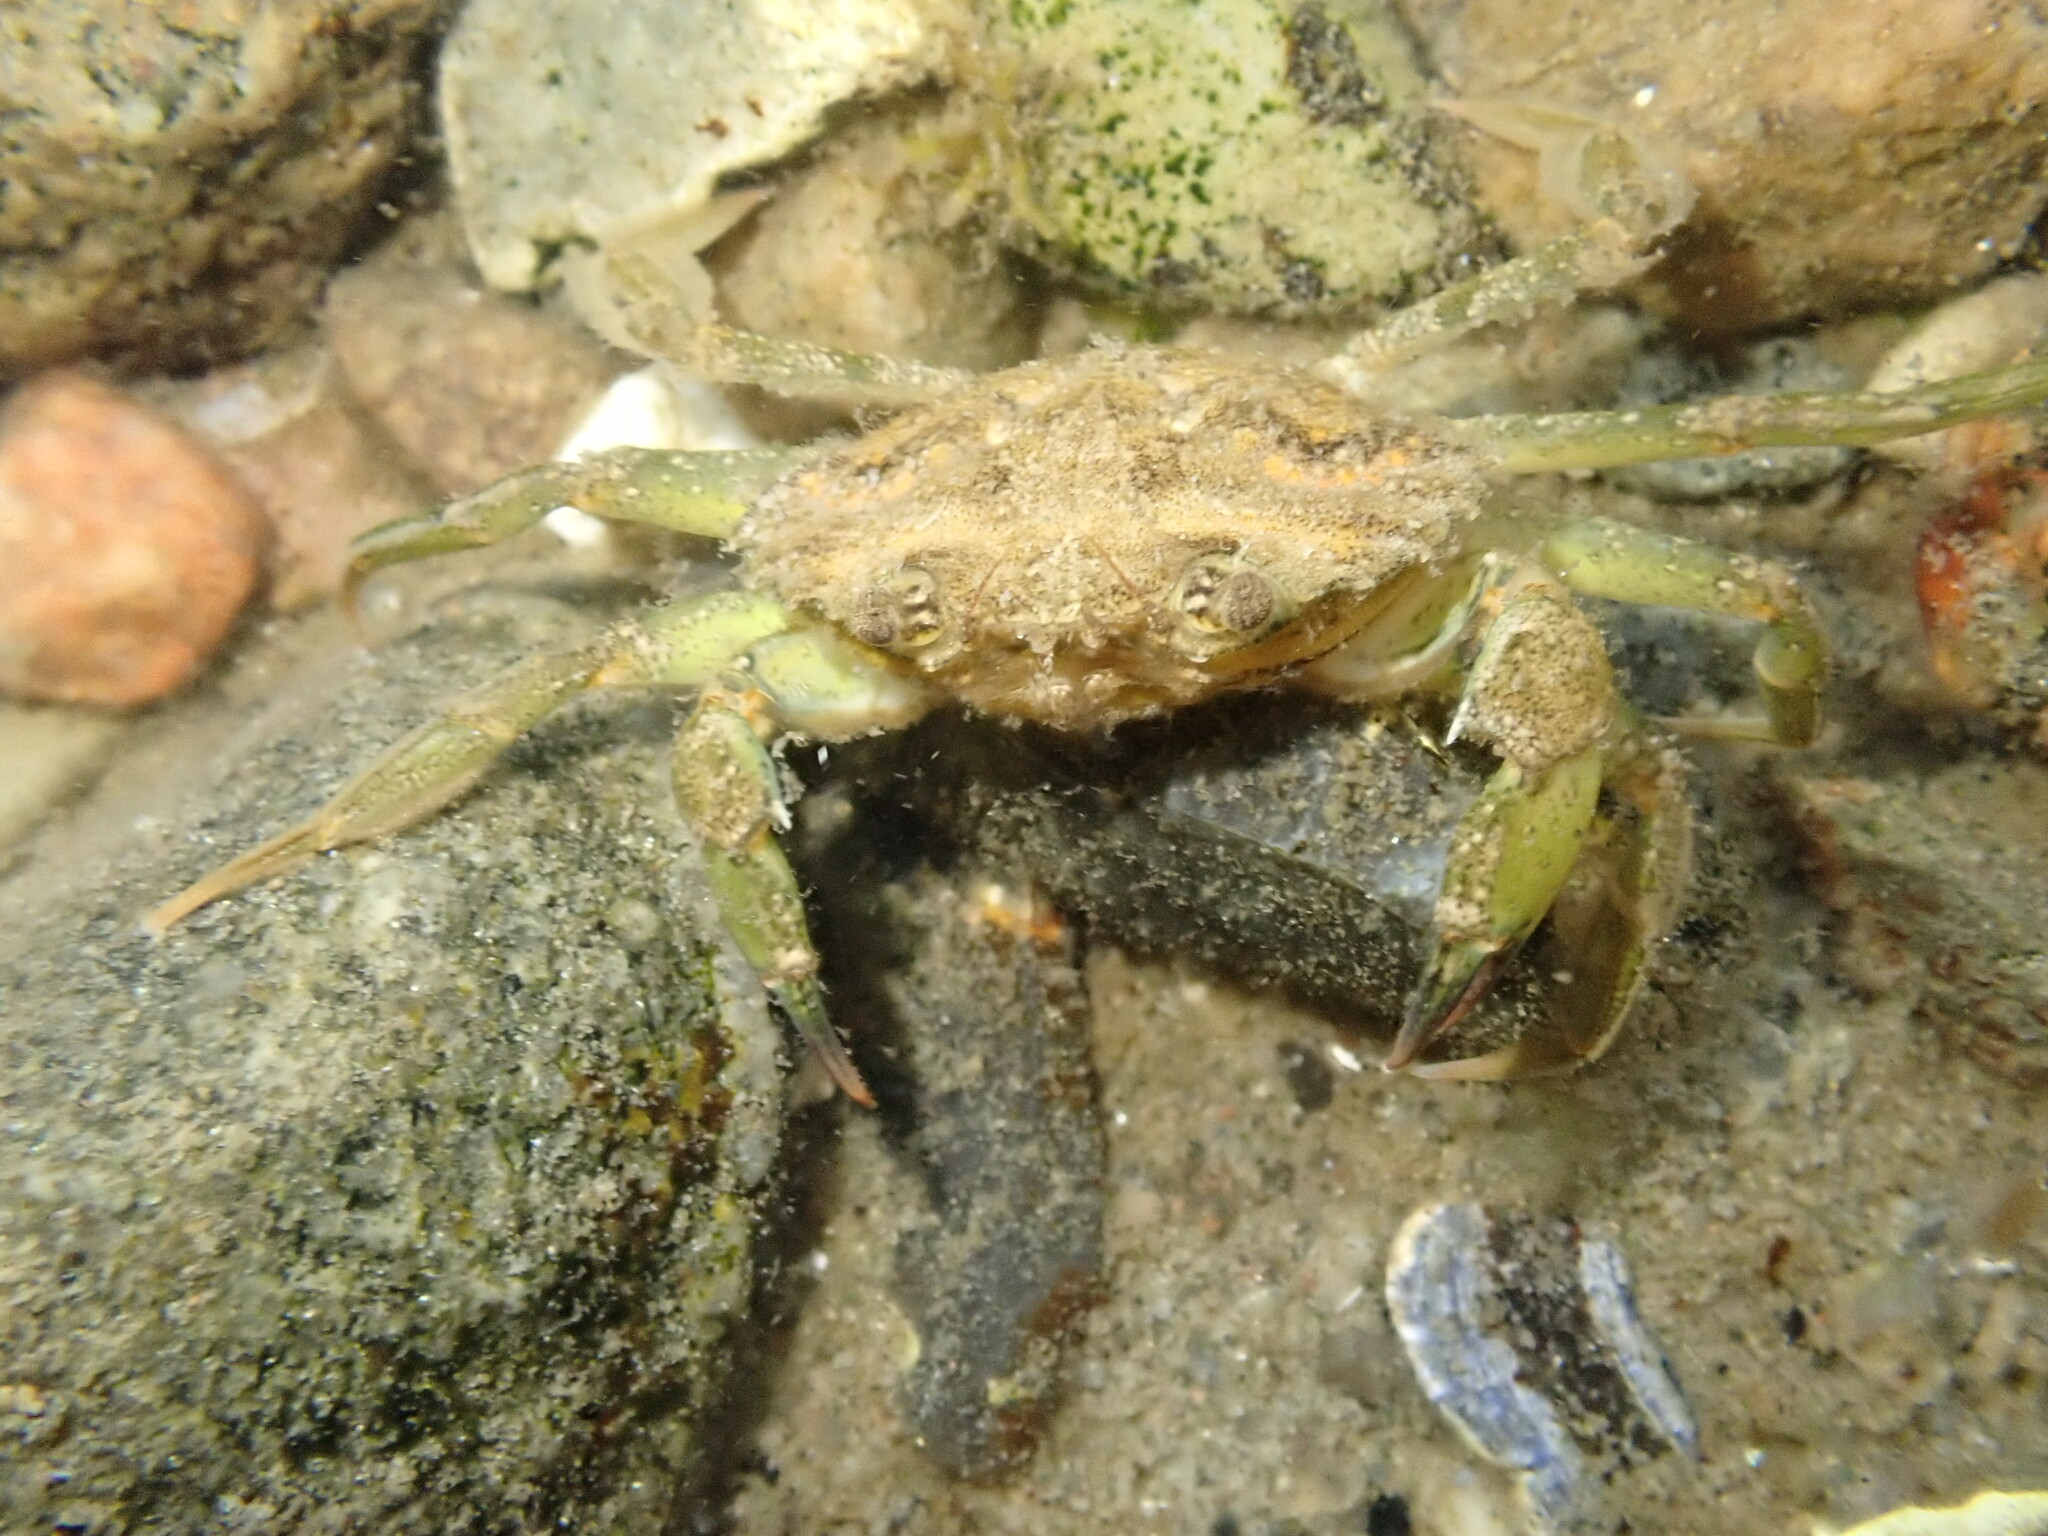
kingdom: Animalia
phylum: Arthropoda
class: Malacostraca
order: Decapoda
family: Carcinidae
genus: Carcinus
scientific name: Carcinus maenas
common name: European green crab
